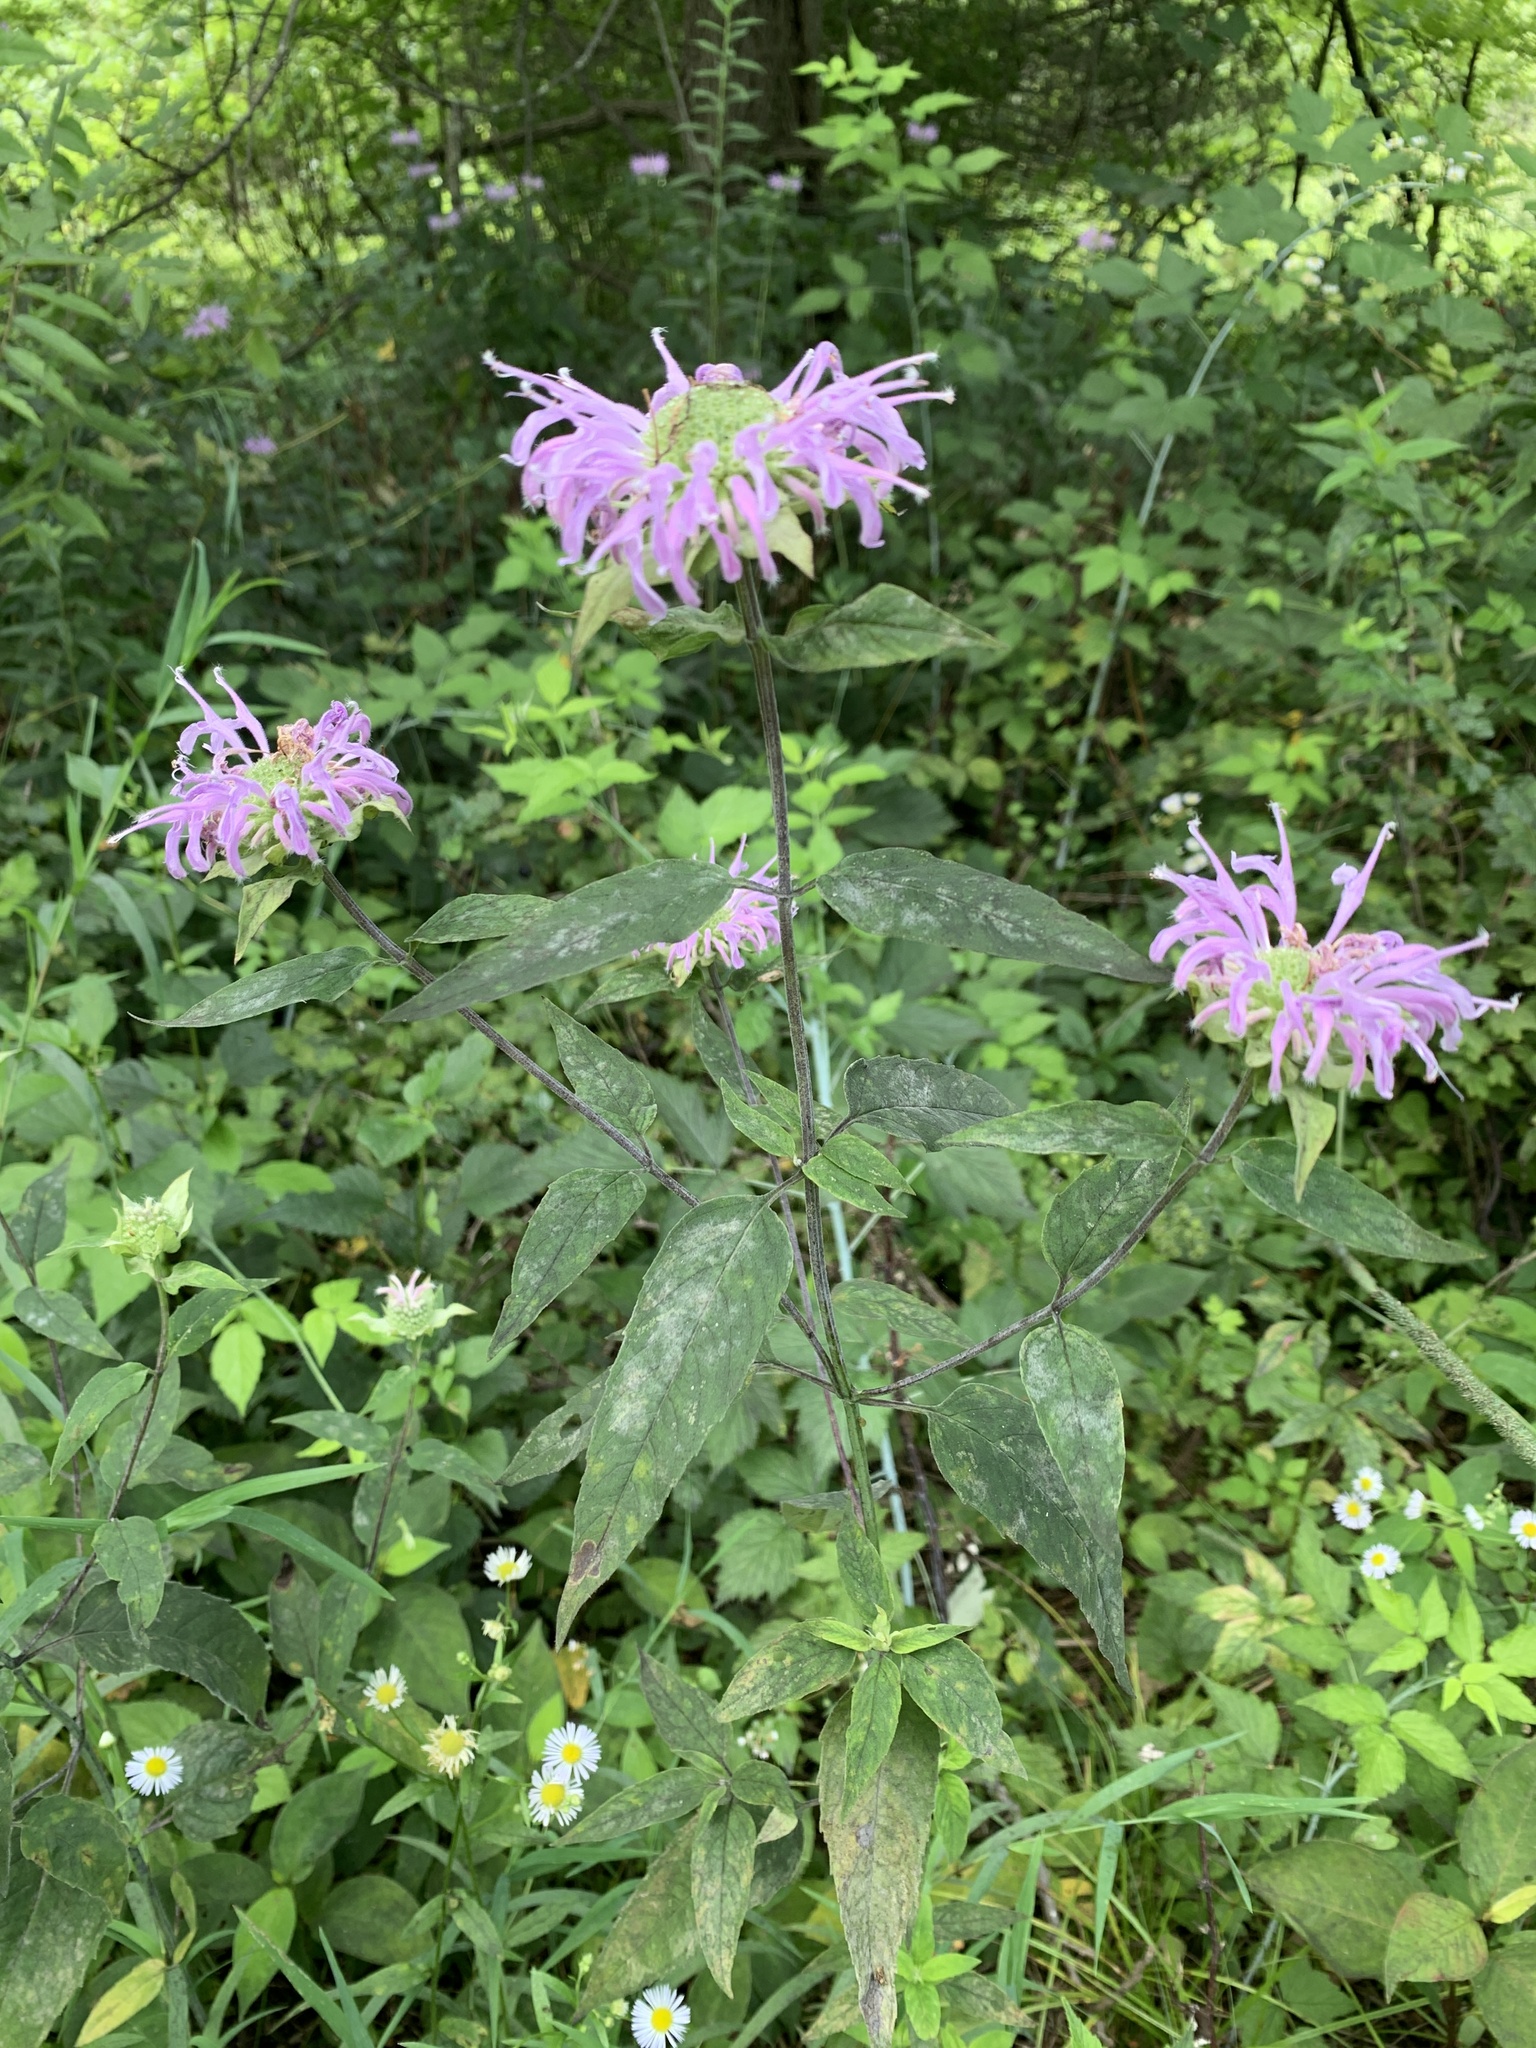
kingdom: Plantae
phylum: Tracheophyta
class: Magnoliopsida
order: Lamiales
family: Lamiaceae
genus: Monarda
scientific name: Monarda fistulosa
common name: Purple beebalm
